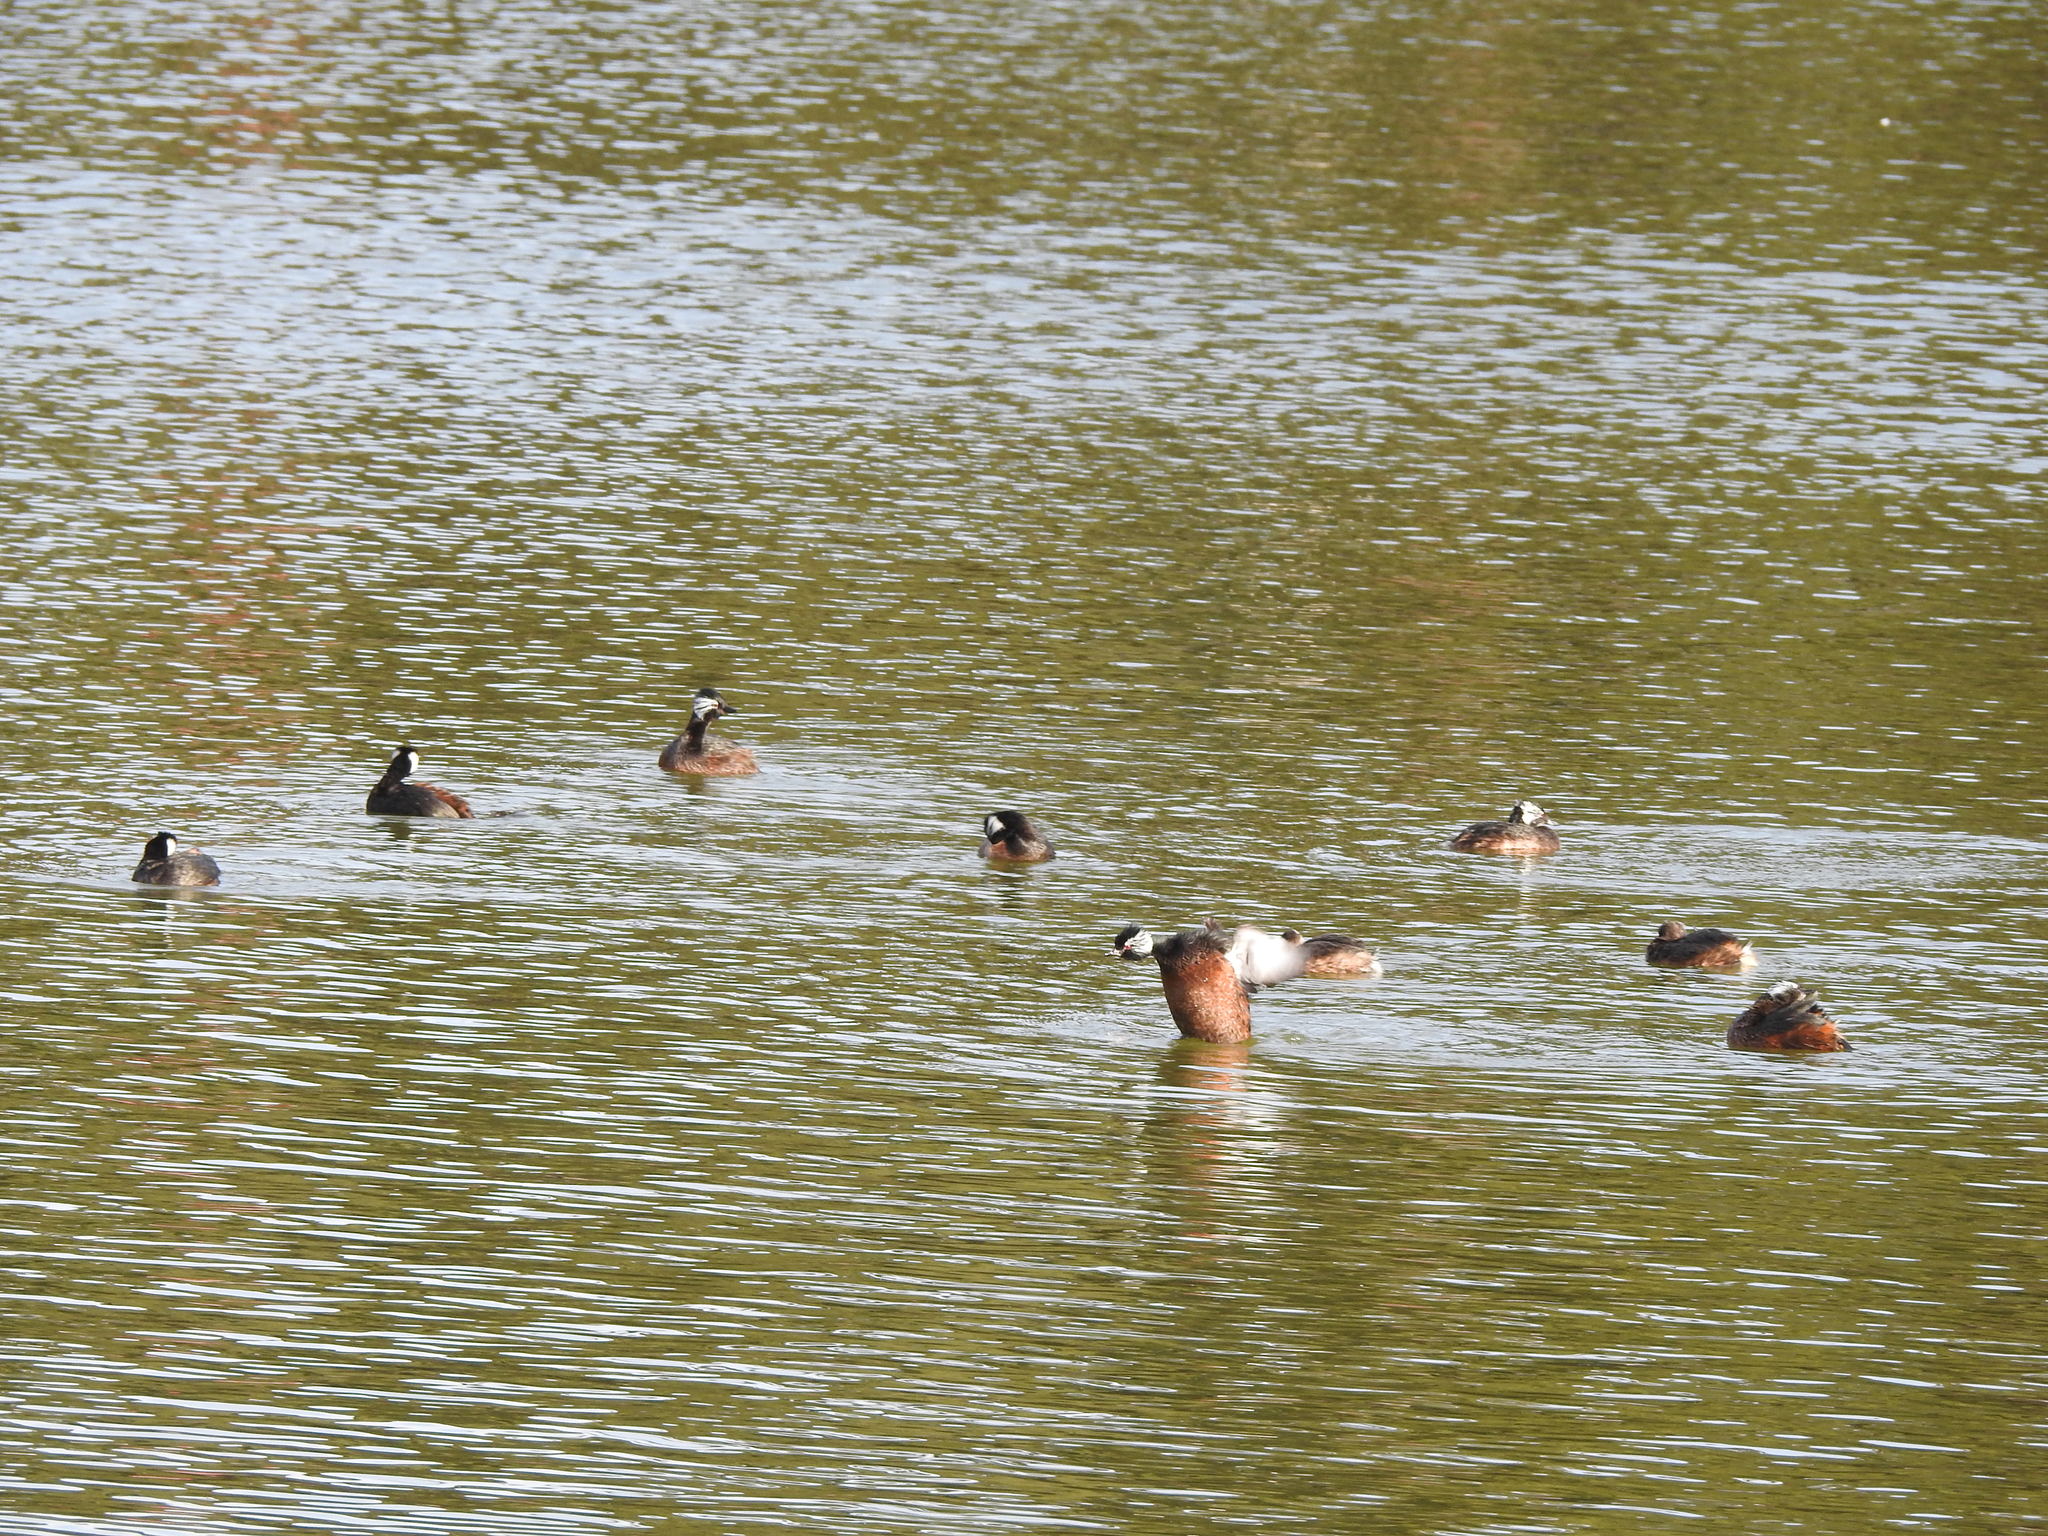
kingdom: Animalia
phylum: Chordata
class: Aves
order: Podicipediformes
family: Podicipedidae
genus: Rollandia
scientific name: Rollandia rolland
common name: White-tufted grebe
